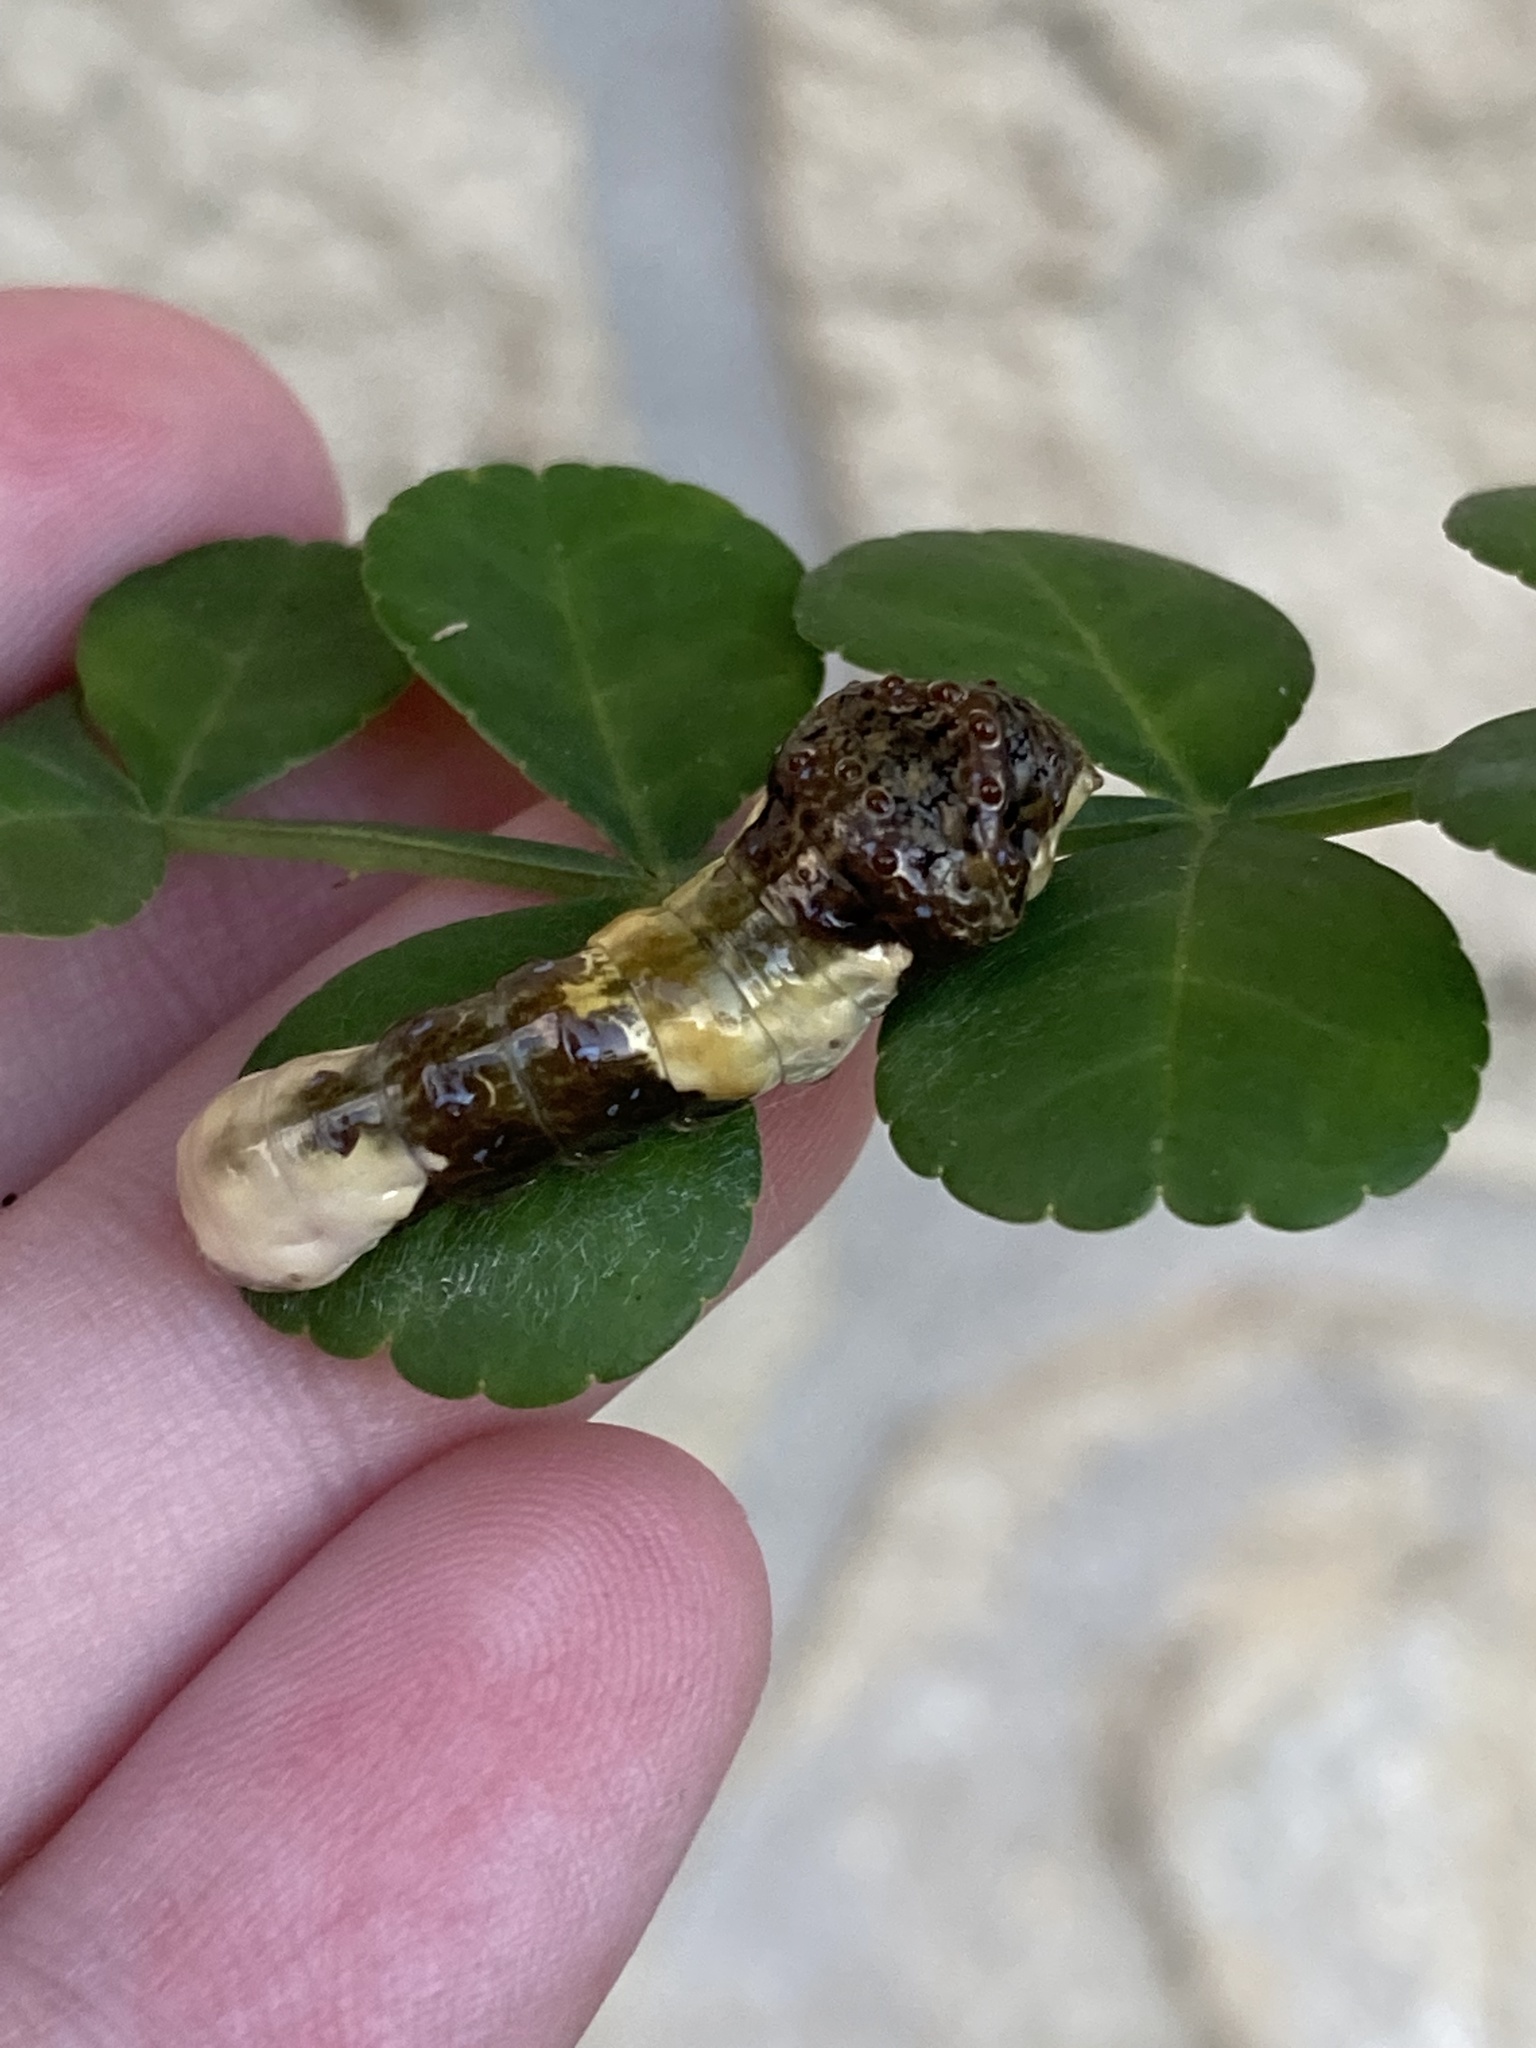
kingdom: Animalia
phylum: Arthropoda
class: Insecta
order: Lepidoptera
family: Papilionidae
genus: Papilio
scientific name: Papilio cresphontes
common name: Giant swallowtail
